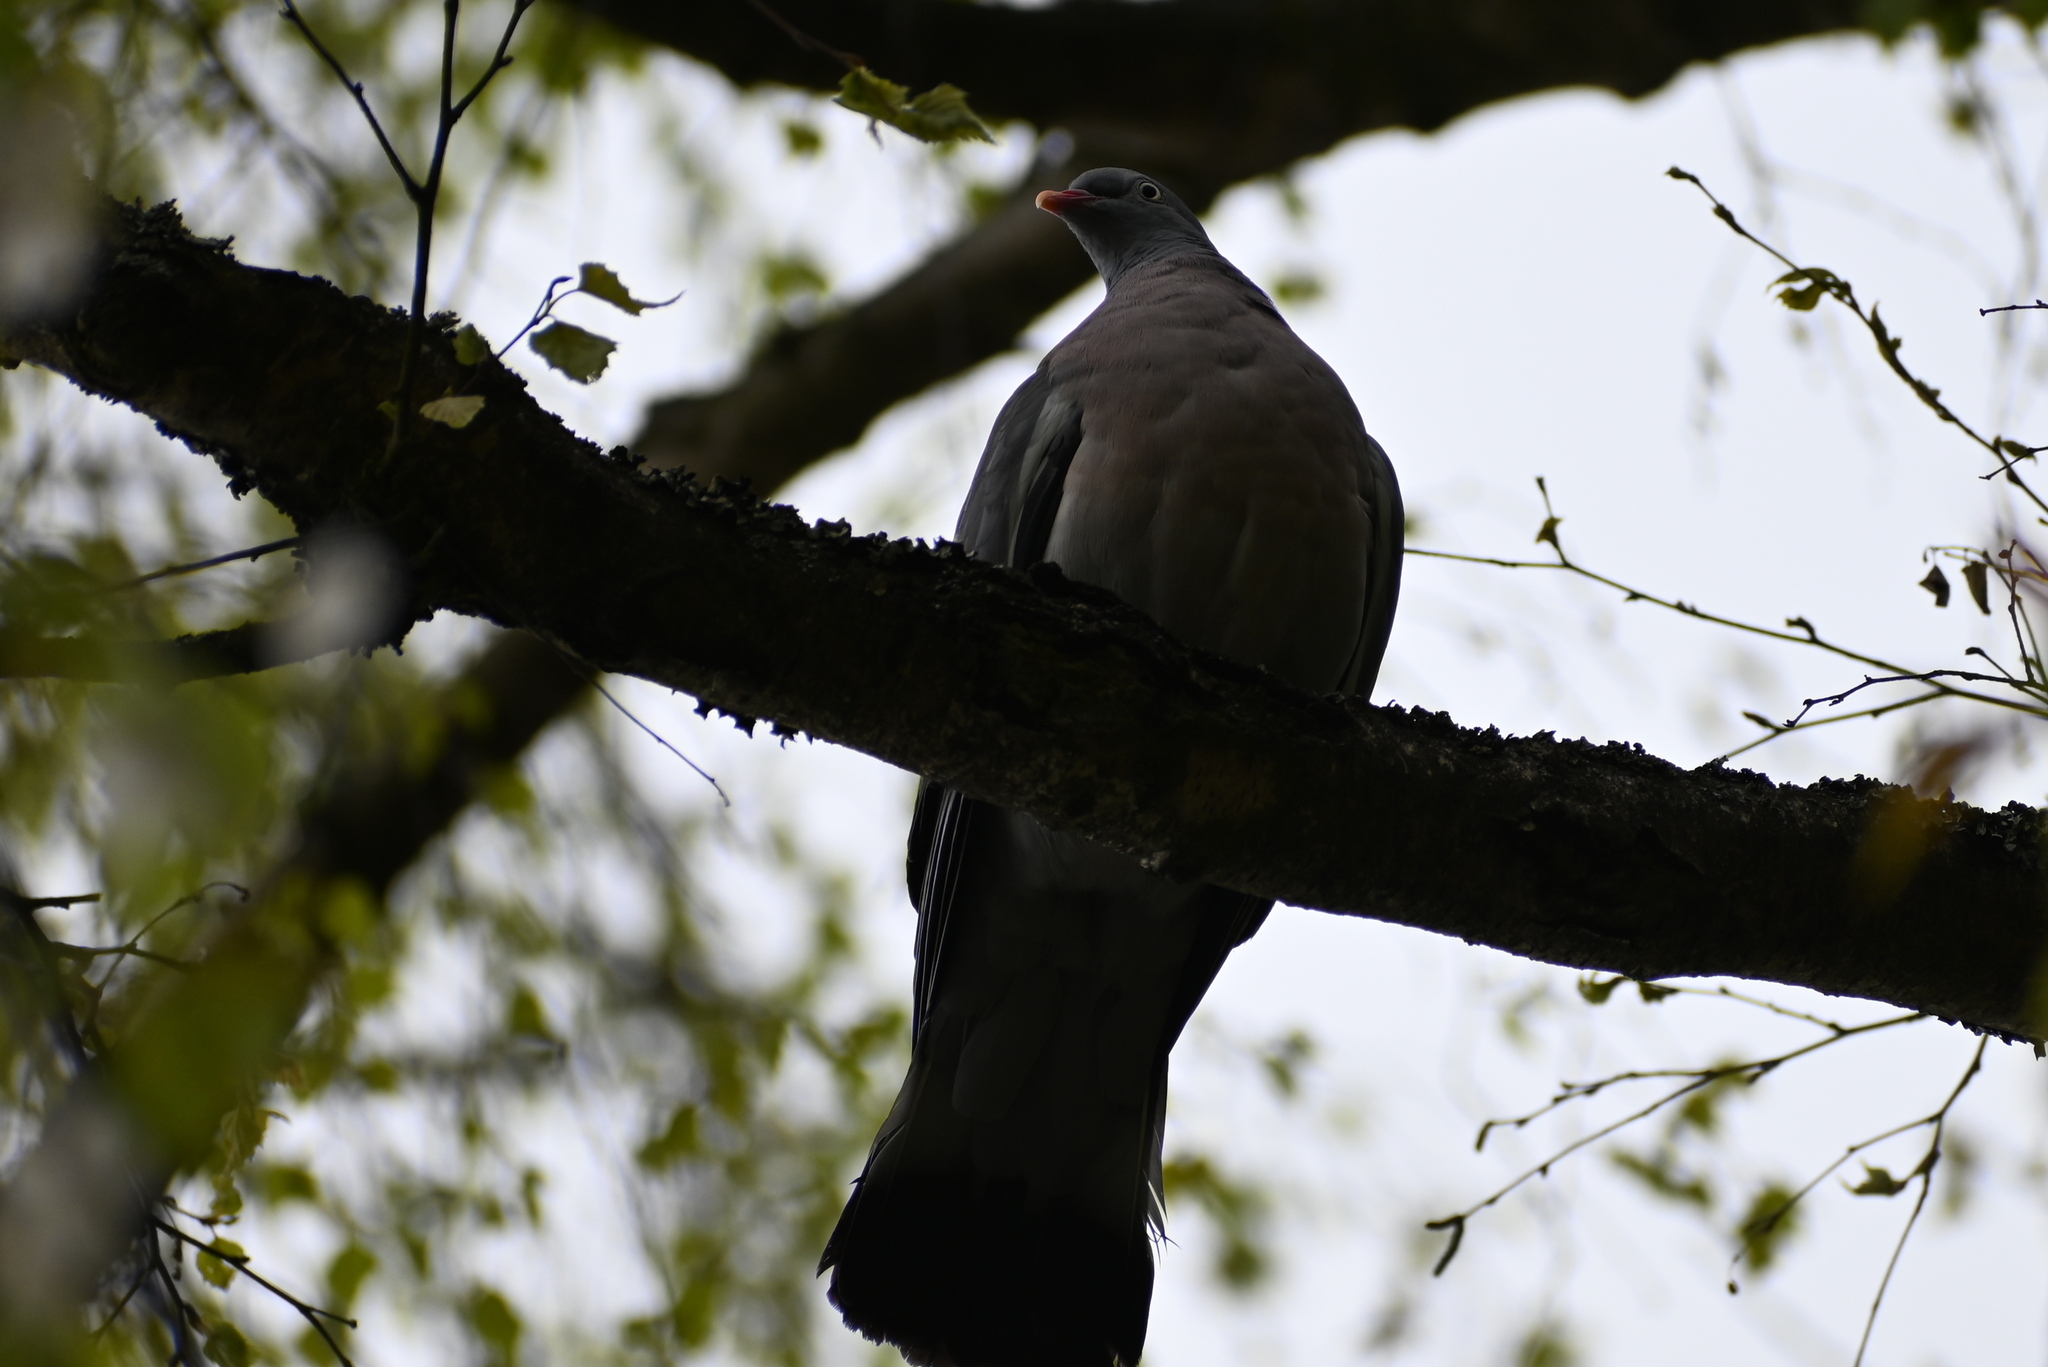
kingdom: Animalia
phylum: Chordata
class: Aves
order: Columbiformes
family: Columbidae
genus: Columba
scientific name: Columba palumbus
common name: Common wood pigeon
